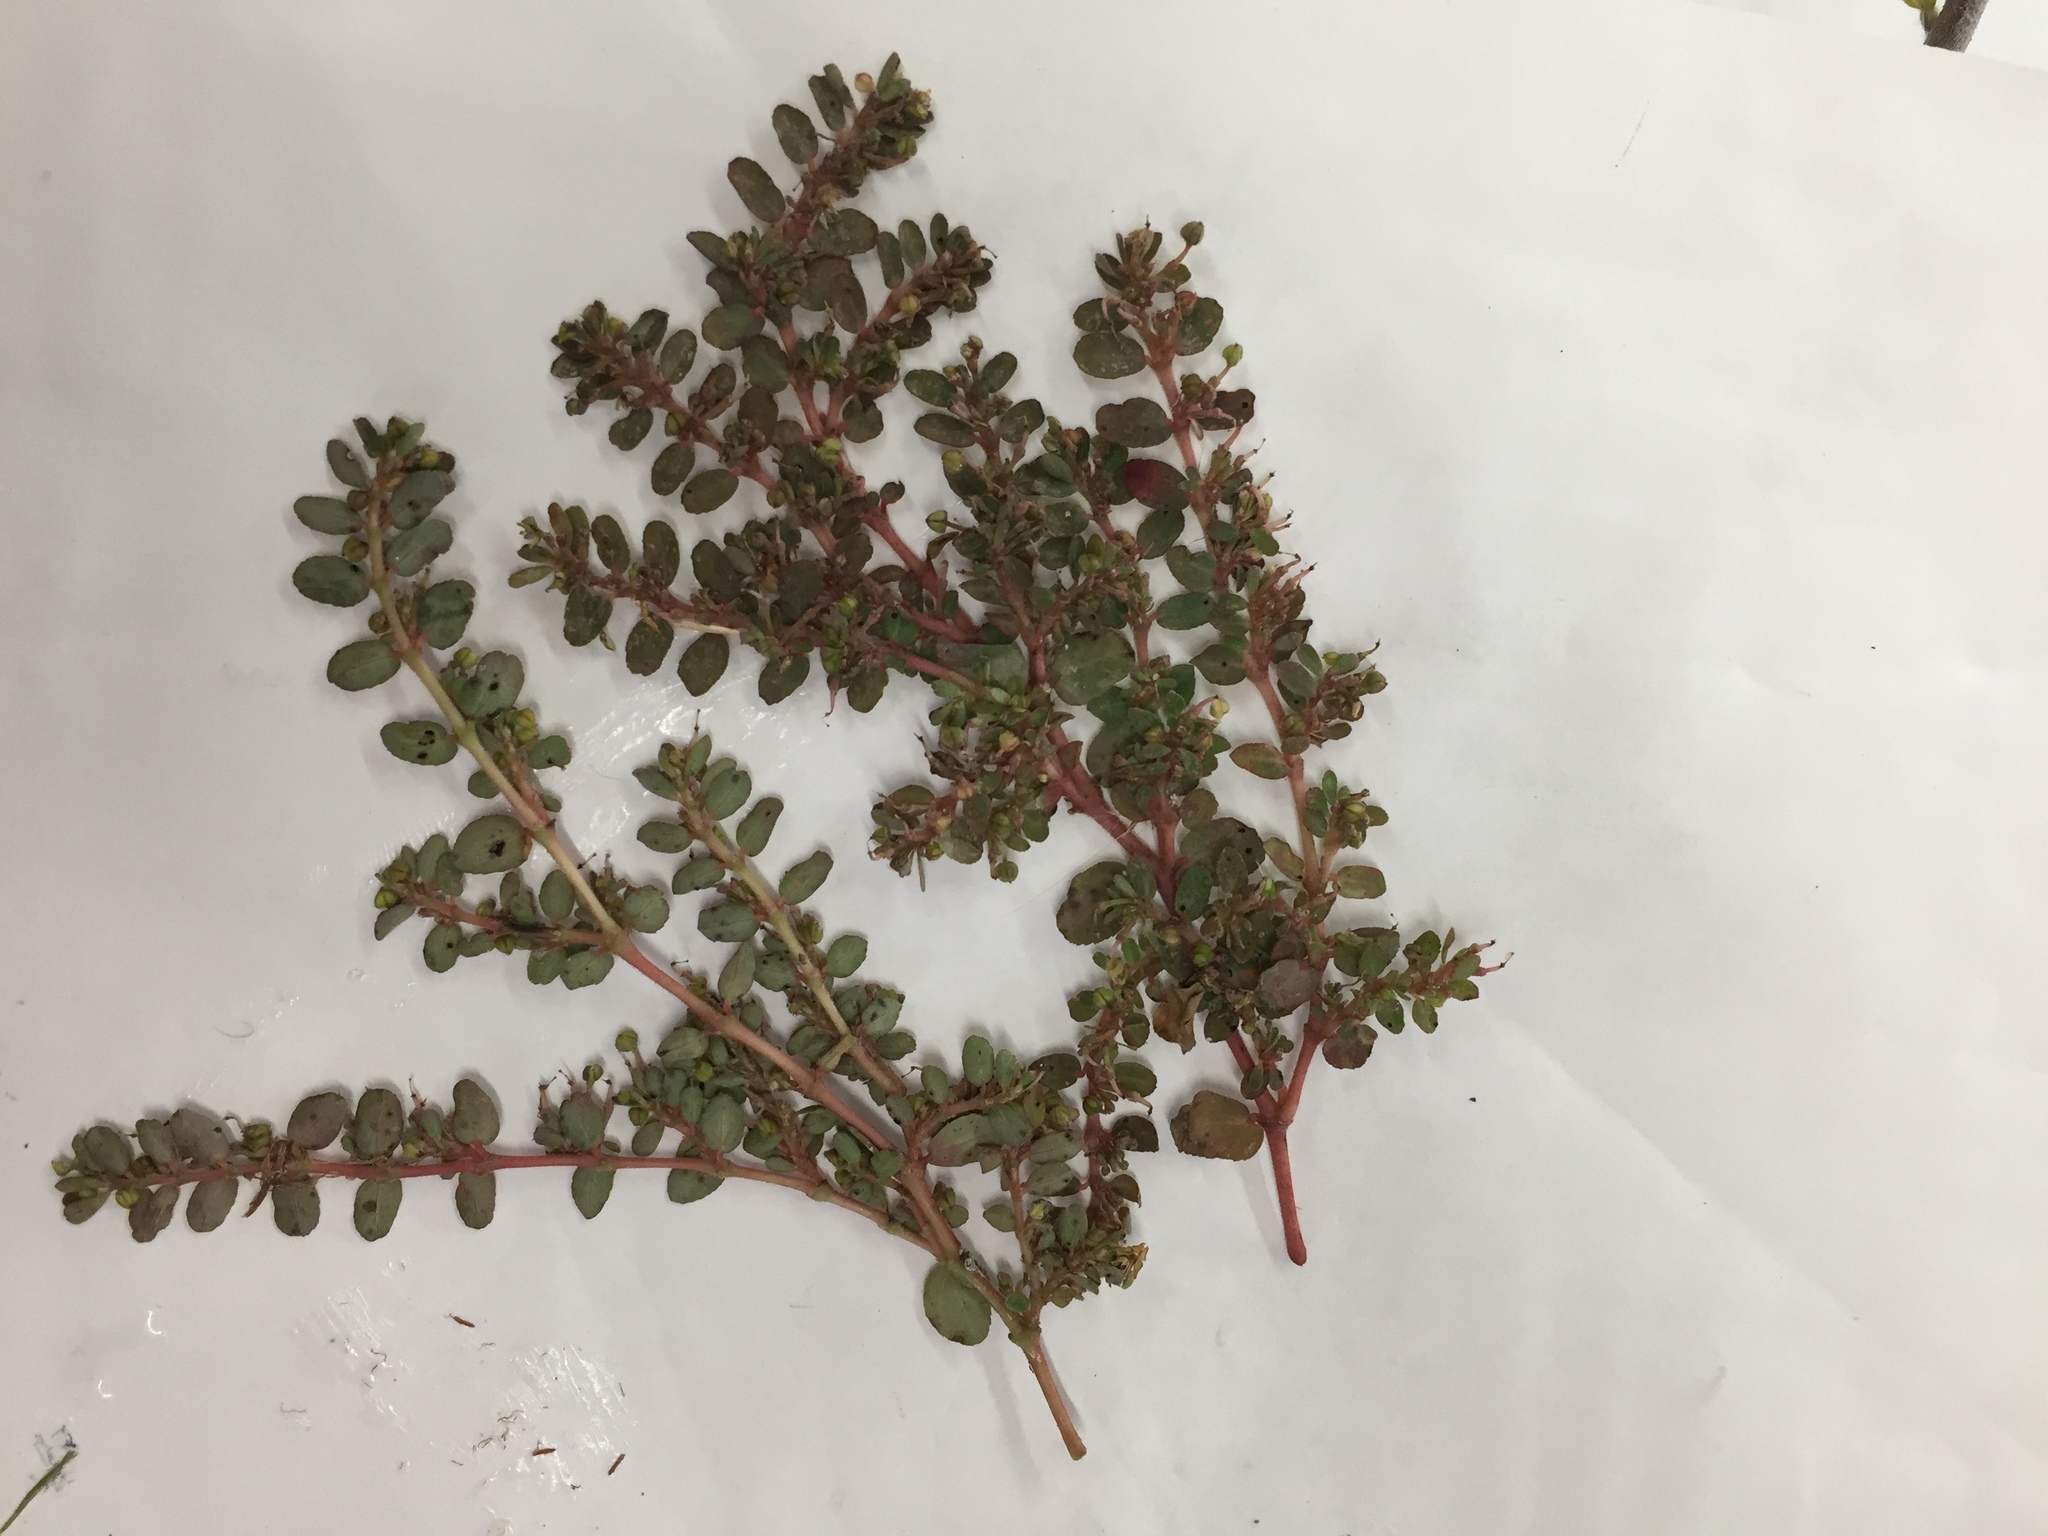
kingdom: Plantae
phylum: Tracheophyta
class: Magnoliopsida
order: Malpighiales
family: Euphorbiaceae
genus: Euphorbia
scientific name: Euphorbia prostrata
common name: Prostrate sandmat
